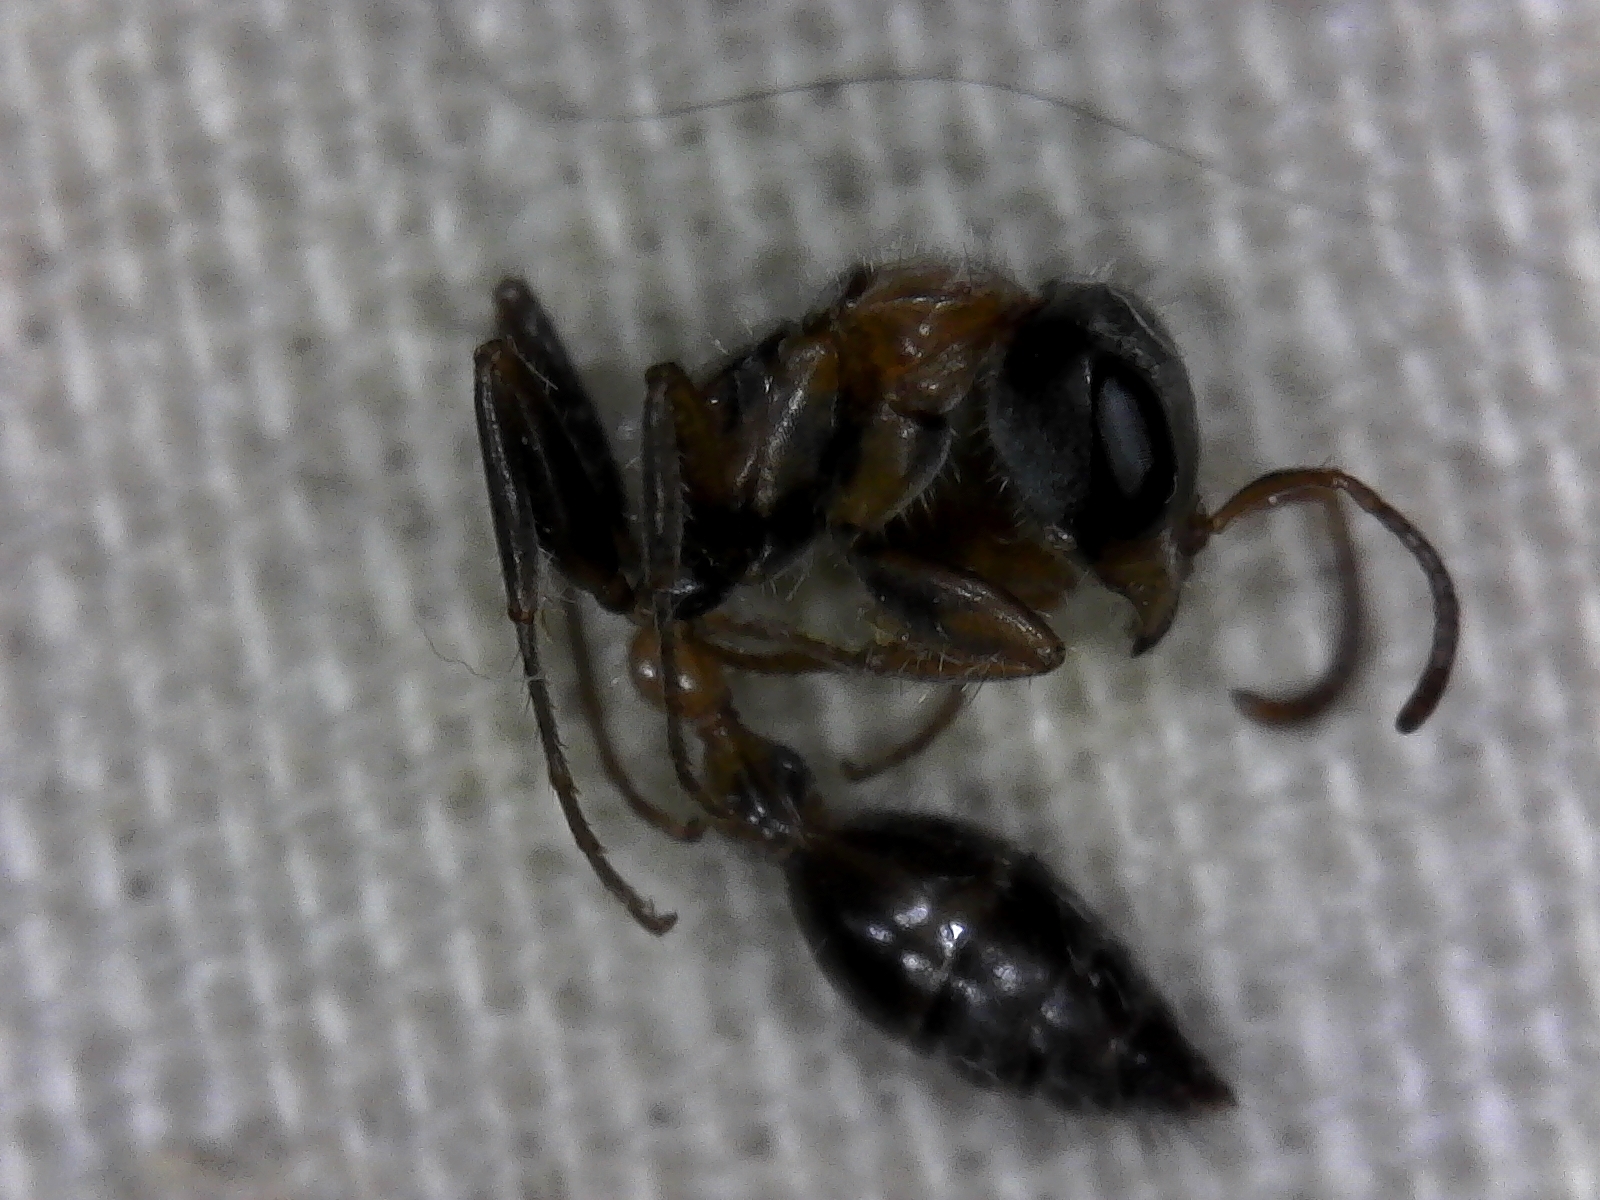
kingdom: Animalia
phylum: Arthropoda
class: Insecta
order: Hymenoptera
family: Formicidae
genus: Pseudomyrmex
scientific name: Pseudomyrmex gracilis
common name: Graceful twig ant
